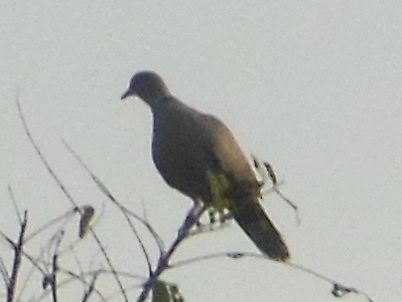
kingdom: Animalia
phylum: Chordata
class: Aves
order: Columbiformes
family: Columbidae
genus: Streptopelia
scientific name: Streptopelia decaocto
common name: Eurasian collared dove
